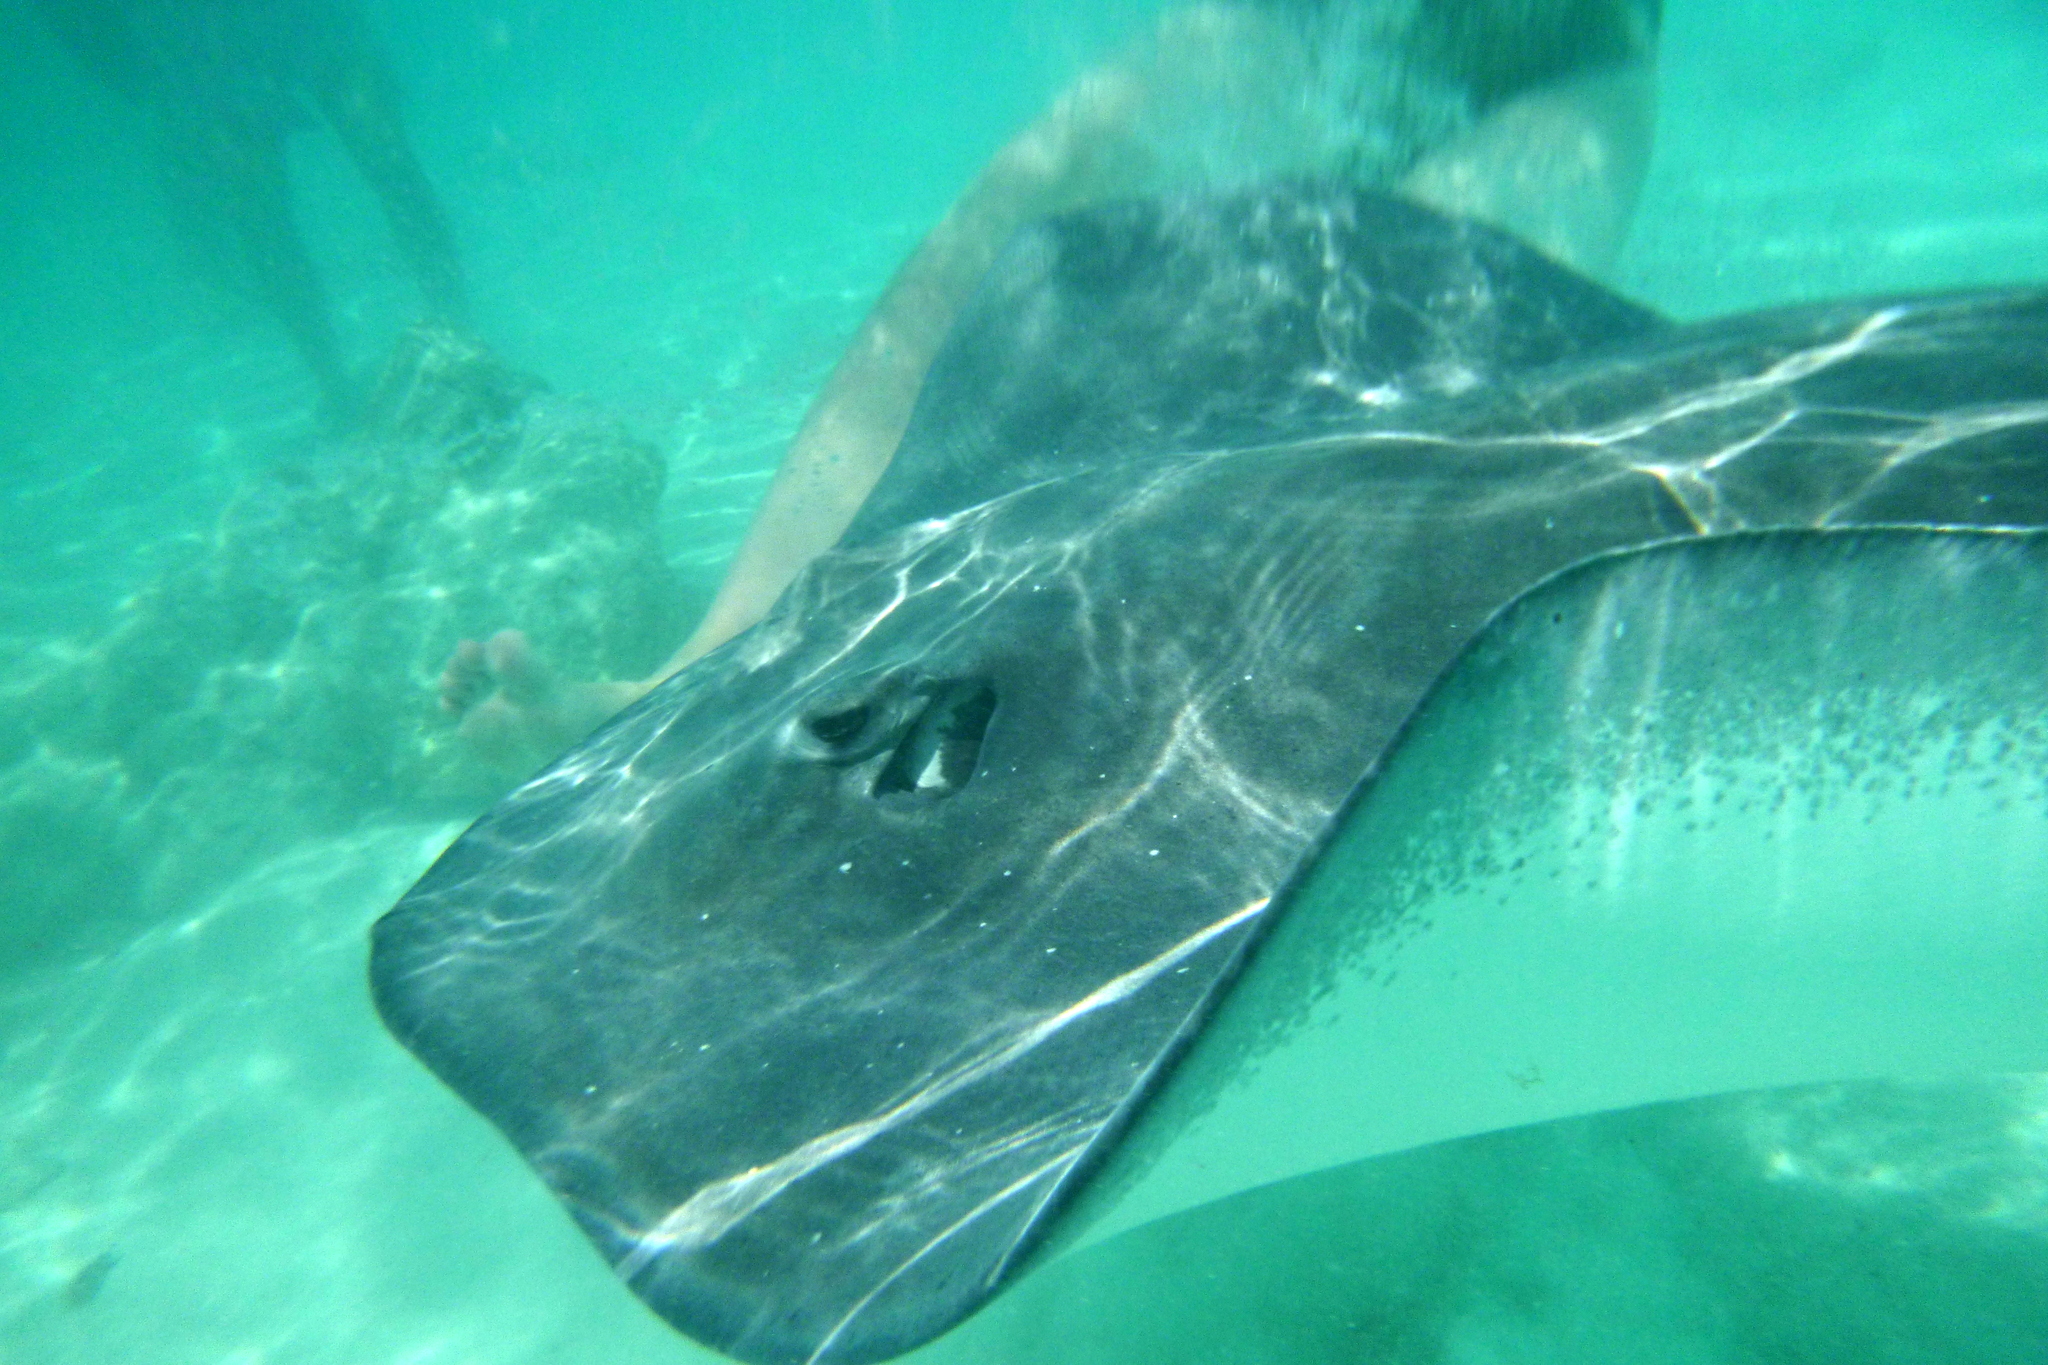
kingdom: Animalia
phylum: Chordata
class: Elasmobranchii
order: Myliobatiformes
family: Dasyatidae
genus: Pateobatis
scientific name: Pateobatis fai
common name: Pink whipray
